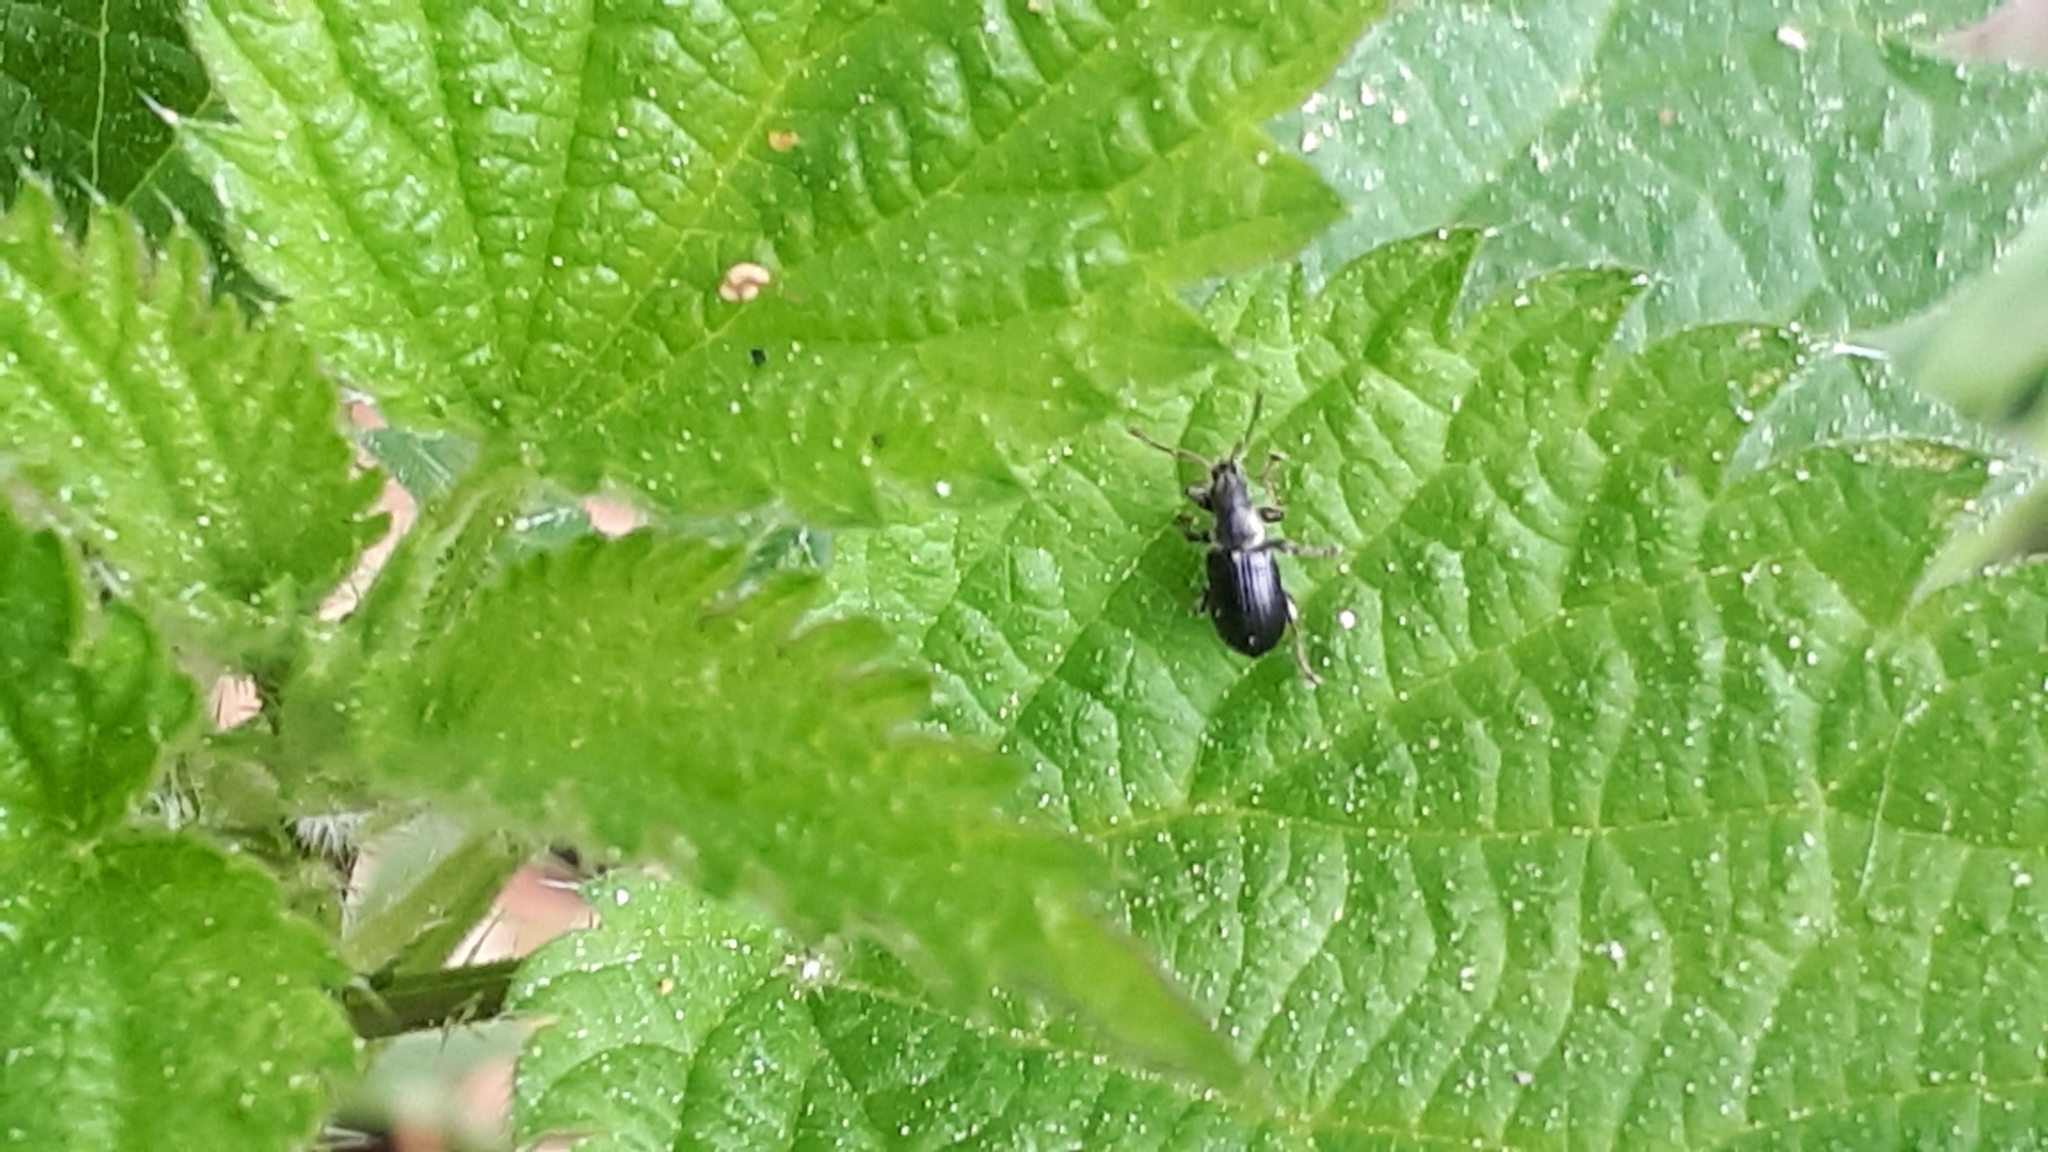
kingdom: Animalia
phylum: Arthropoda
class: Insecta
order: Coleoptera
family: Curculionidae
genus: Phyllobius
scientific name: Phyllobius viridicollis
